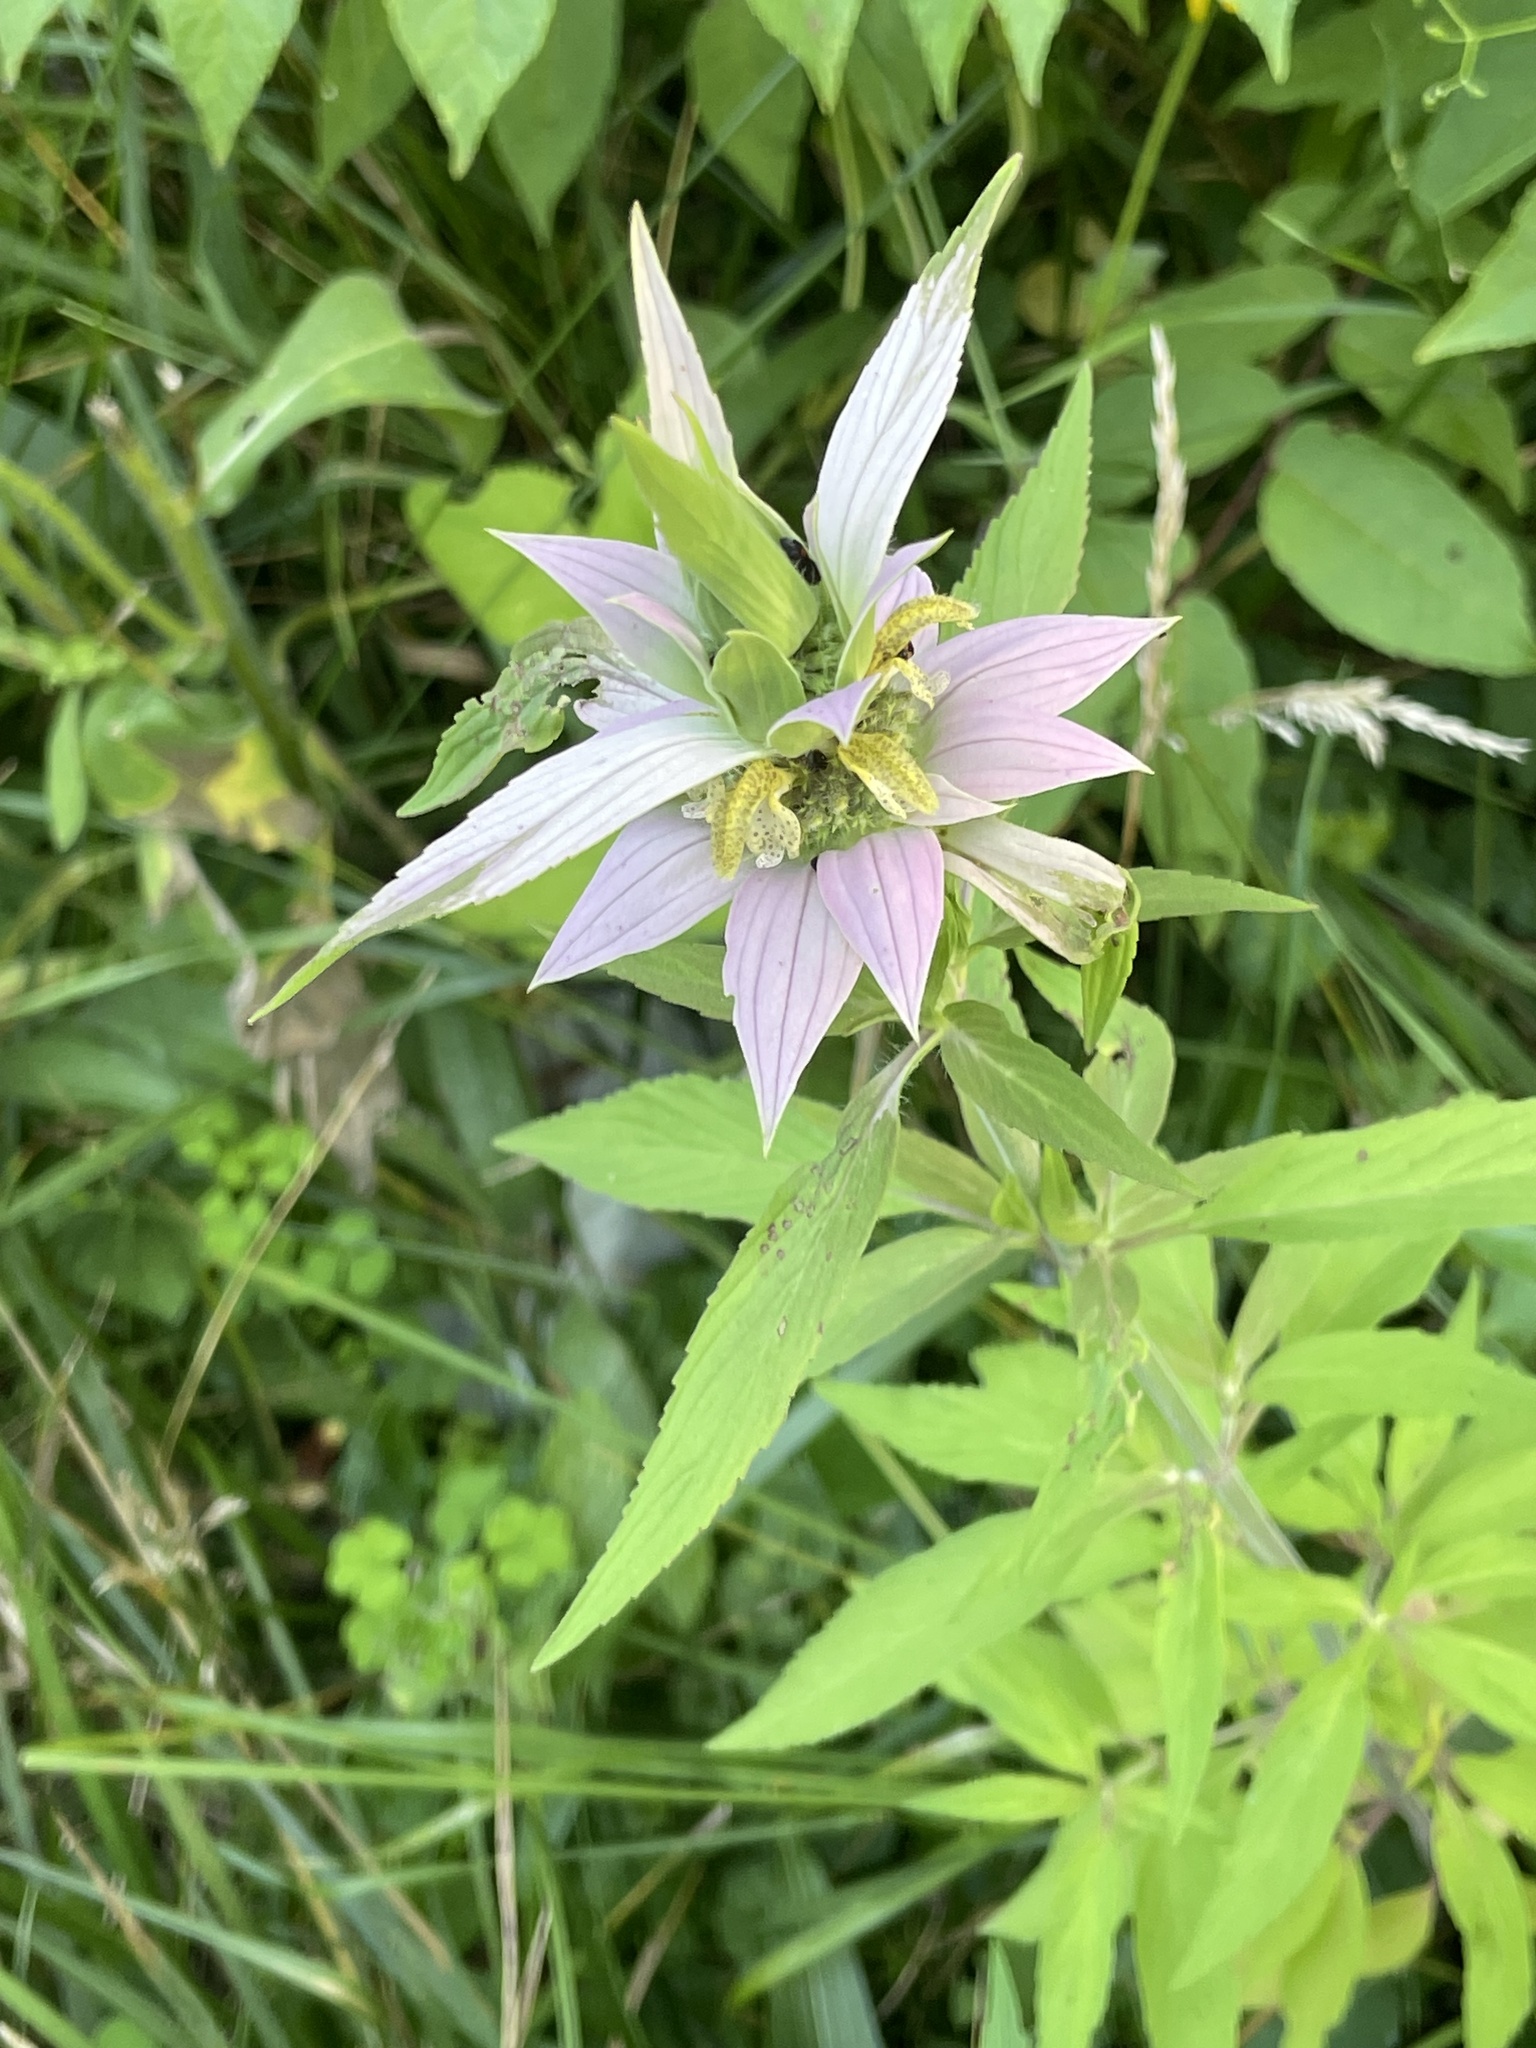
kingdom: Plantae
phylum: Tracheophyta
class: Magnoliopsida
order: Lamiales
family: Lamiaceae
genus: Monarda
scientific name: Monarda punctata
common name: Dotted monarda
